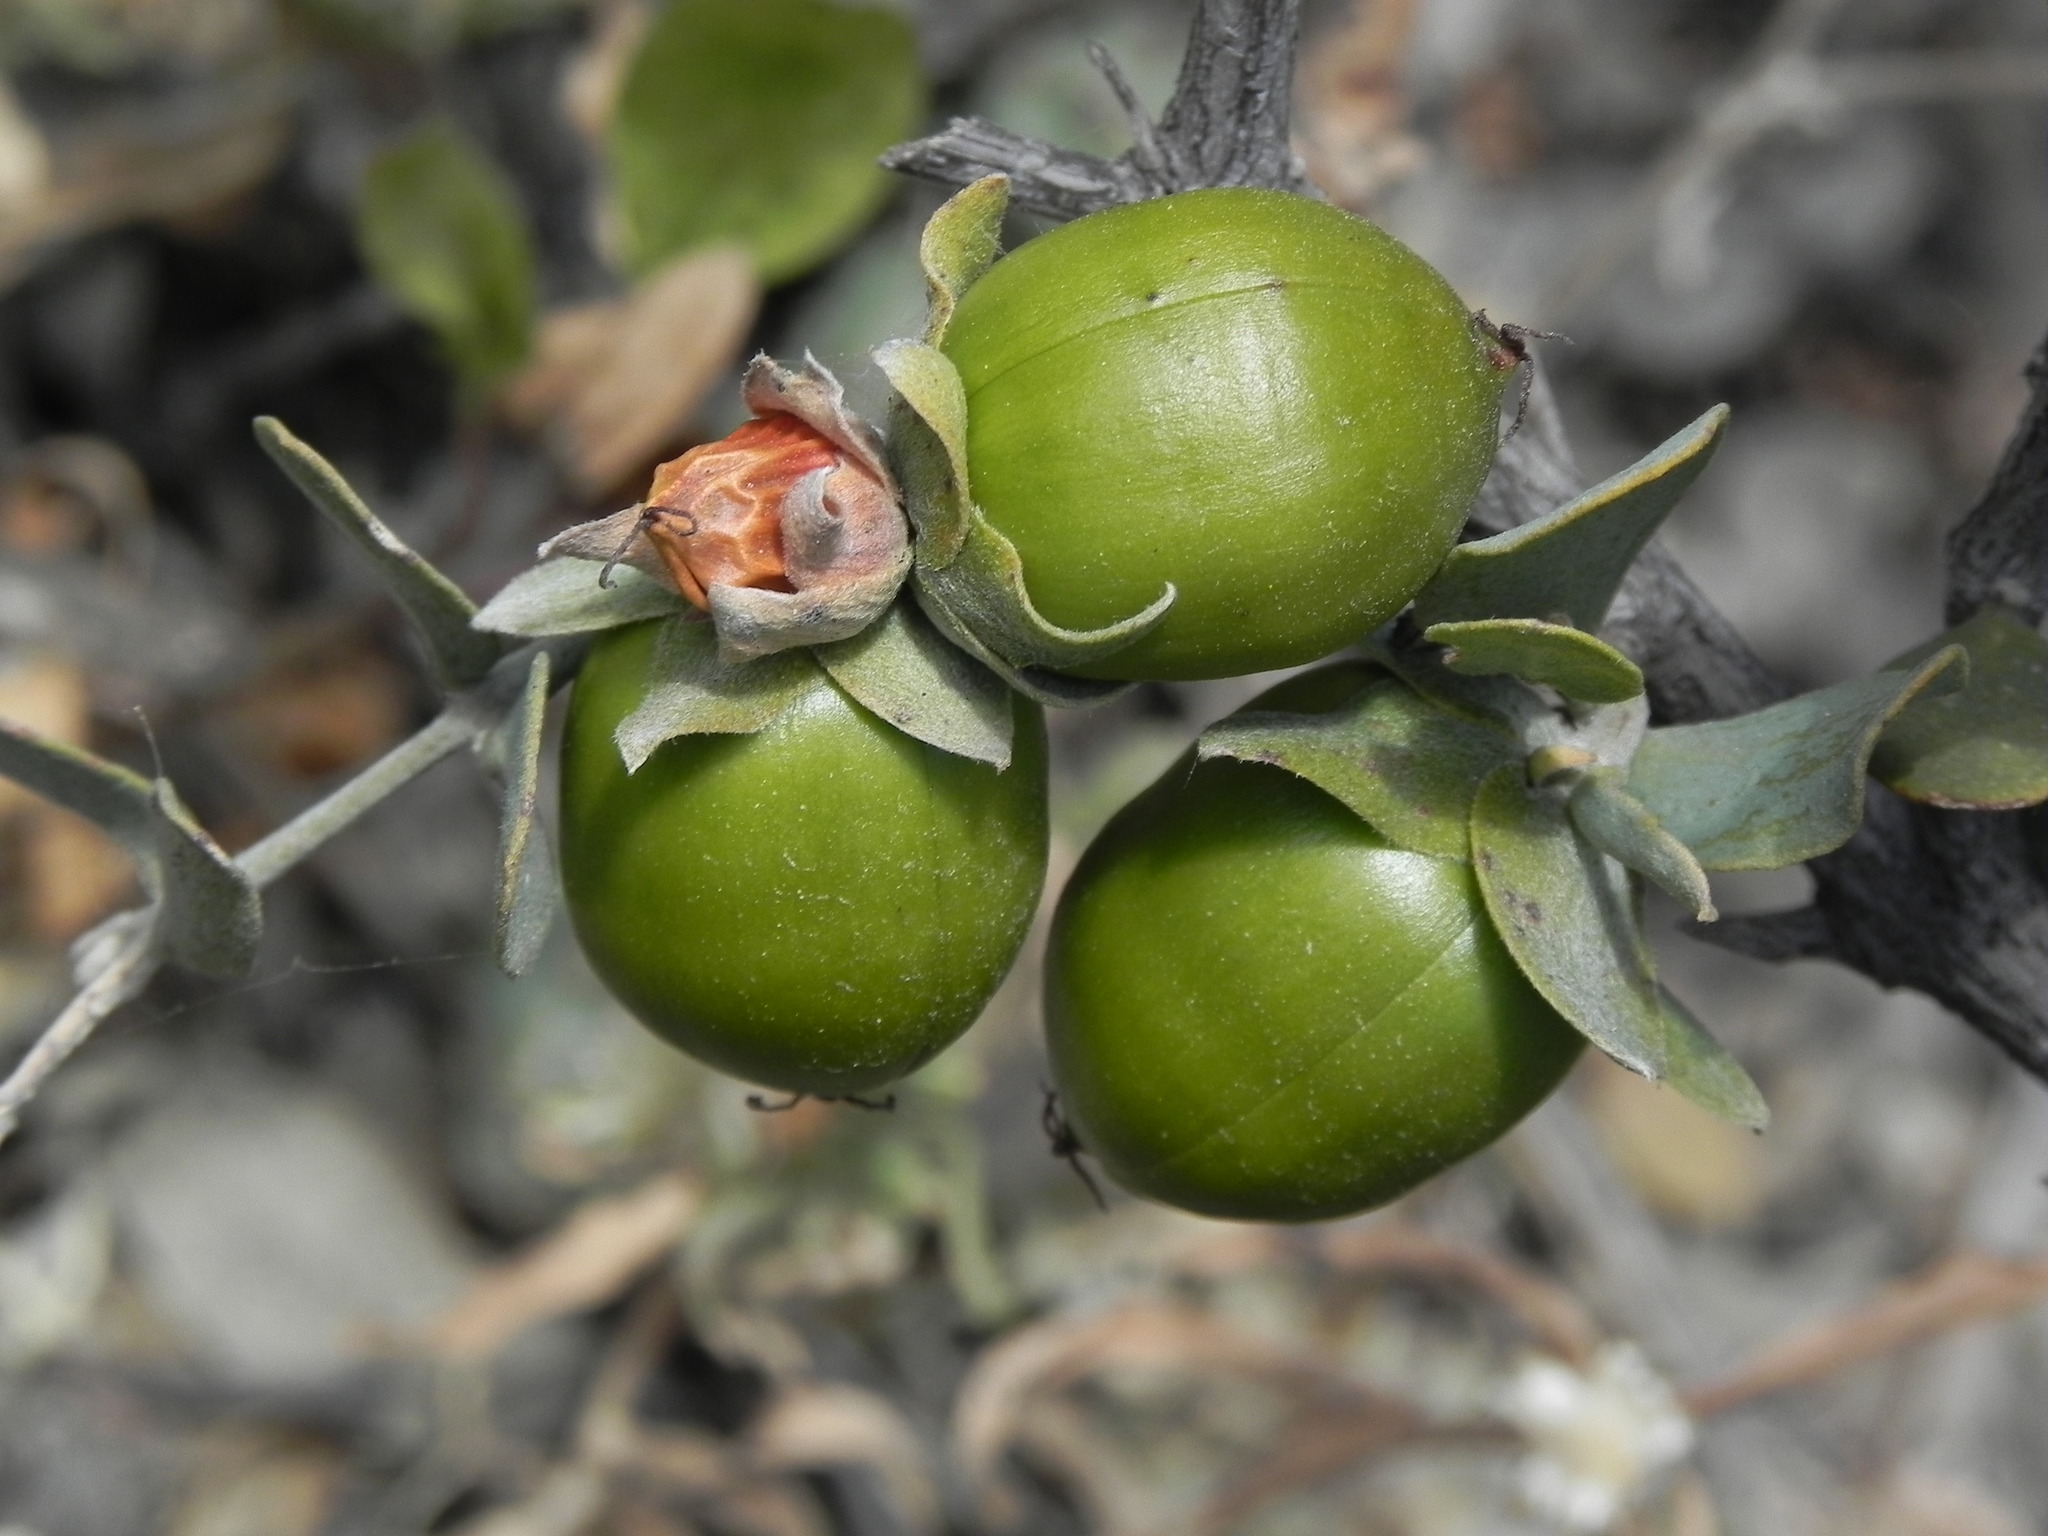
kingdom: Plantae
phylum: Tracheophyta
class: Magnoliopsida
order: Caryophyllales
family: Simmondsiaceae
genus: Simmondsia
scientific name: Simmondsia chinensis
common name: Jojoba
